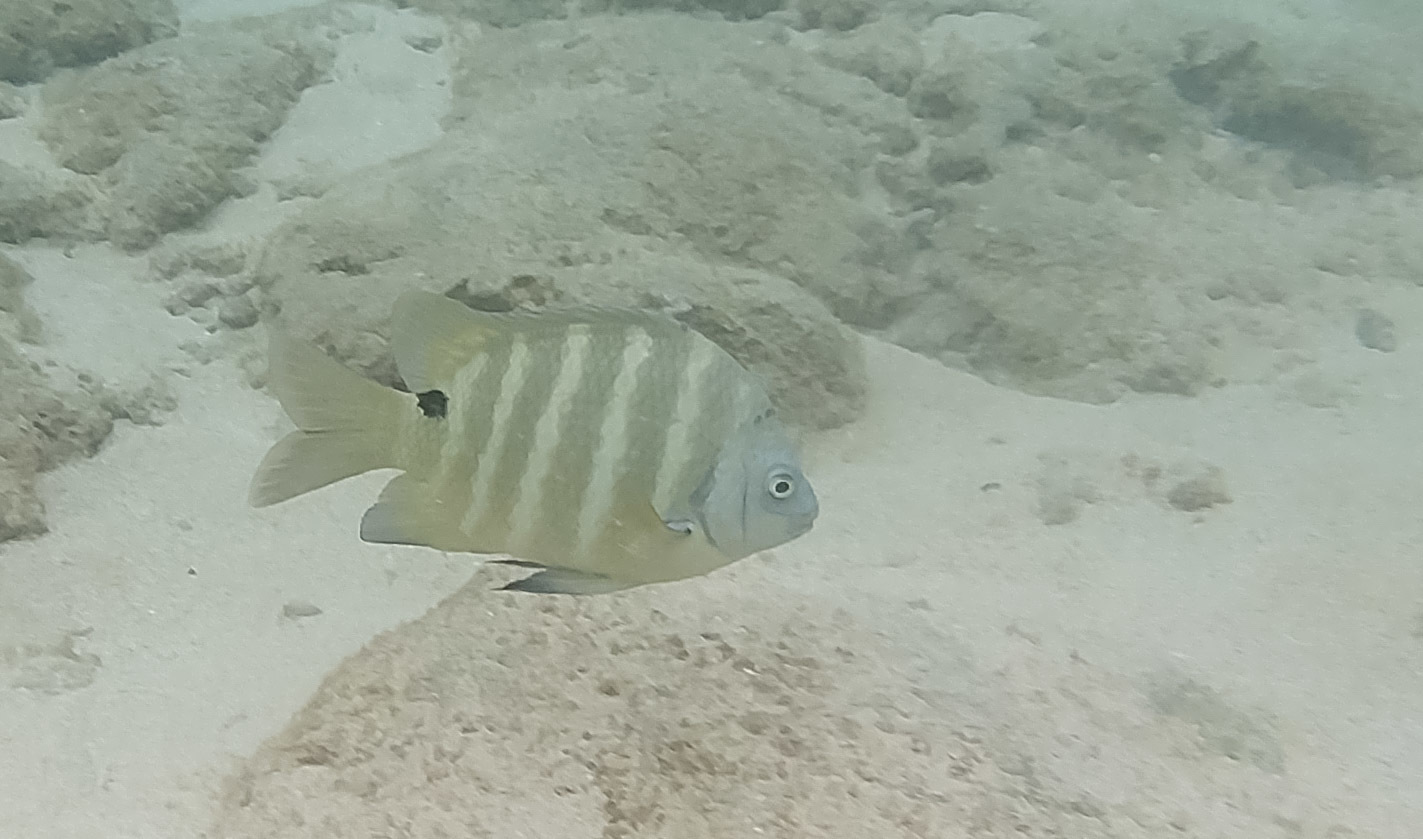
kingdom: Animalia
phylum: Chordata
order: Perciformes
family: Pomacentridae
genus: Abudefduf
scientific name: Abudefduf sordidus
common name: Blackspot sergeant
